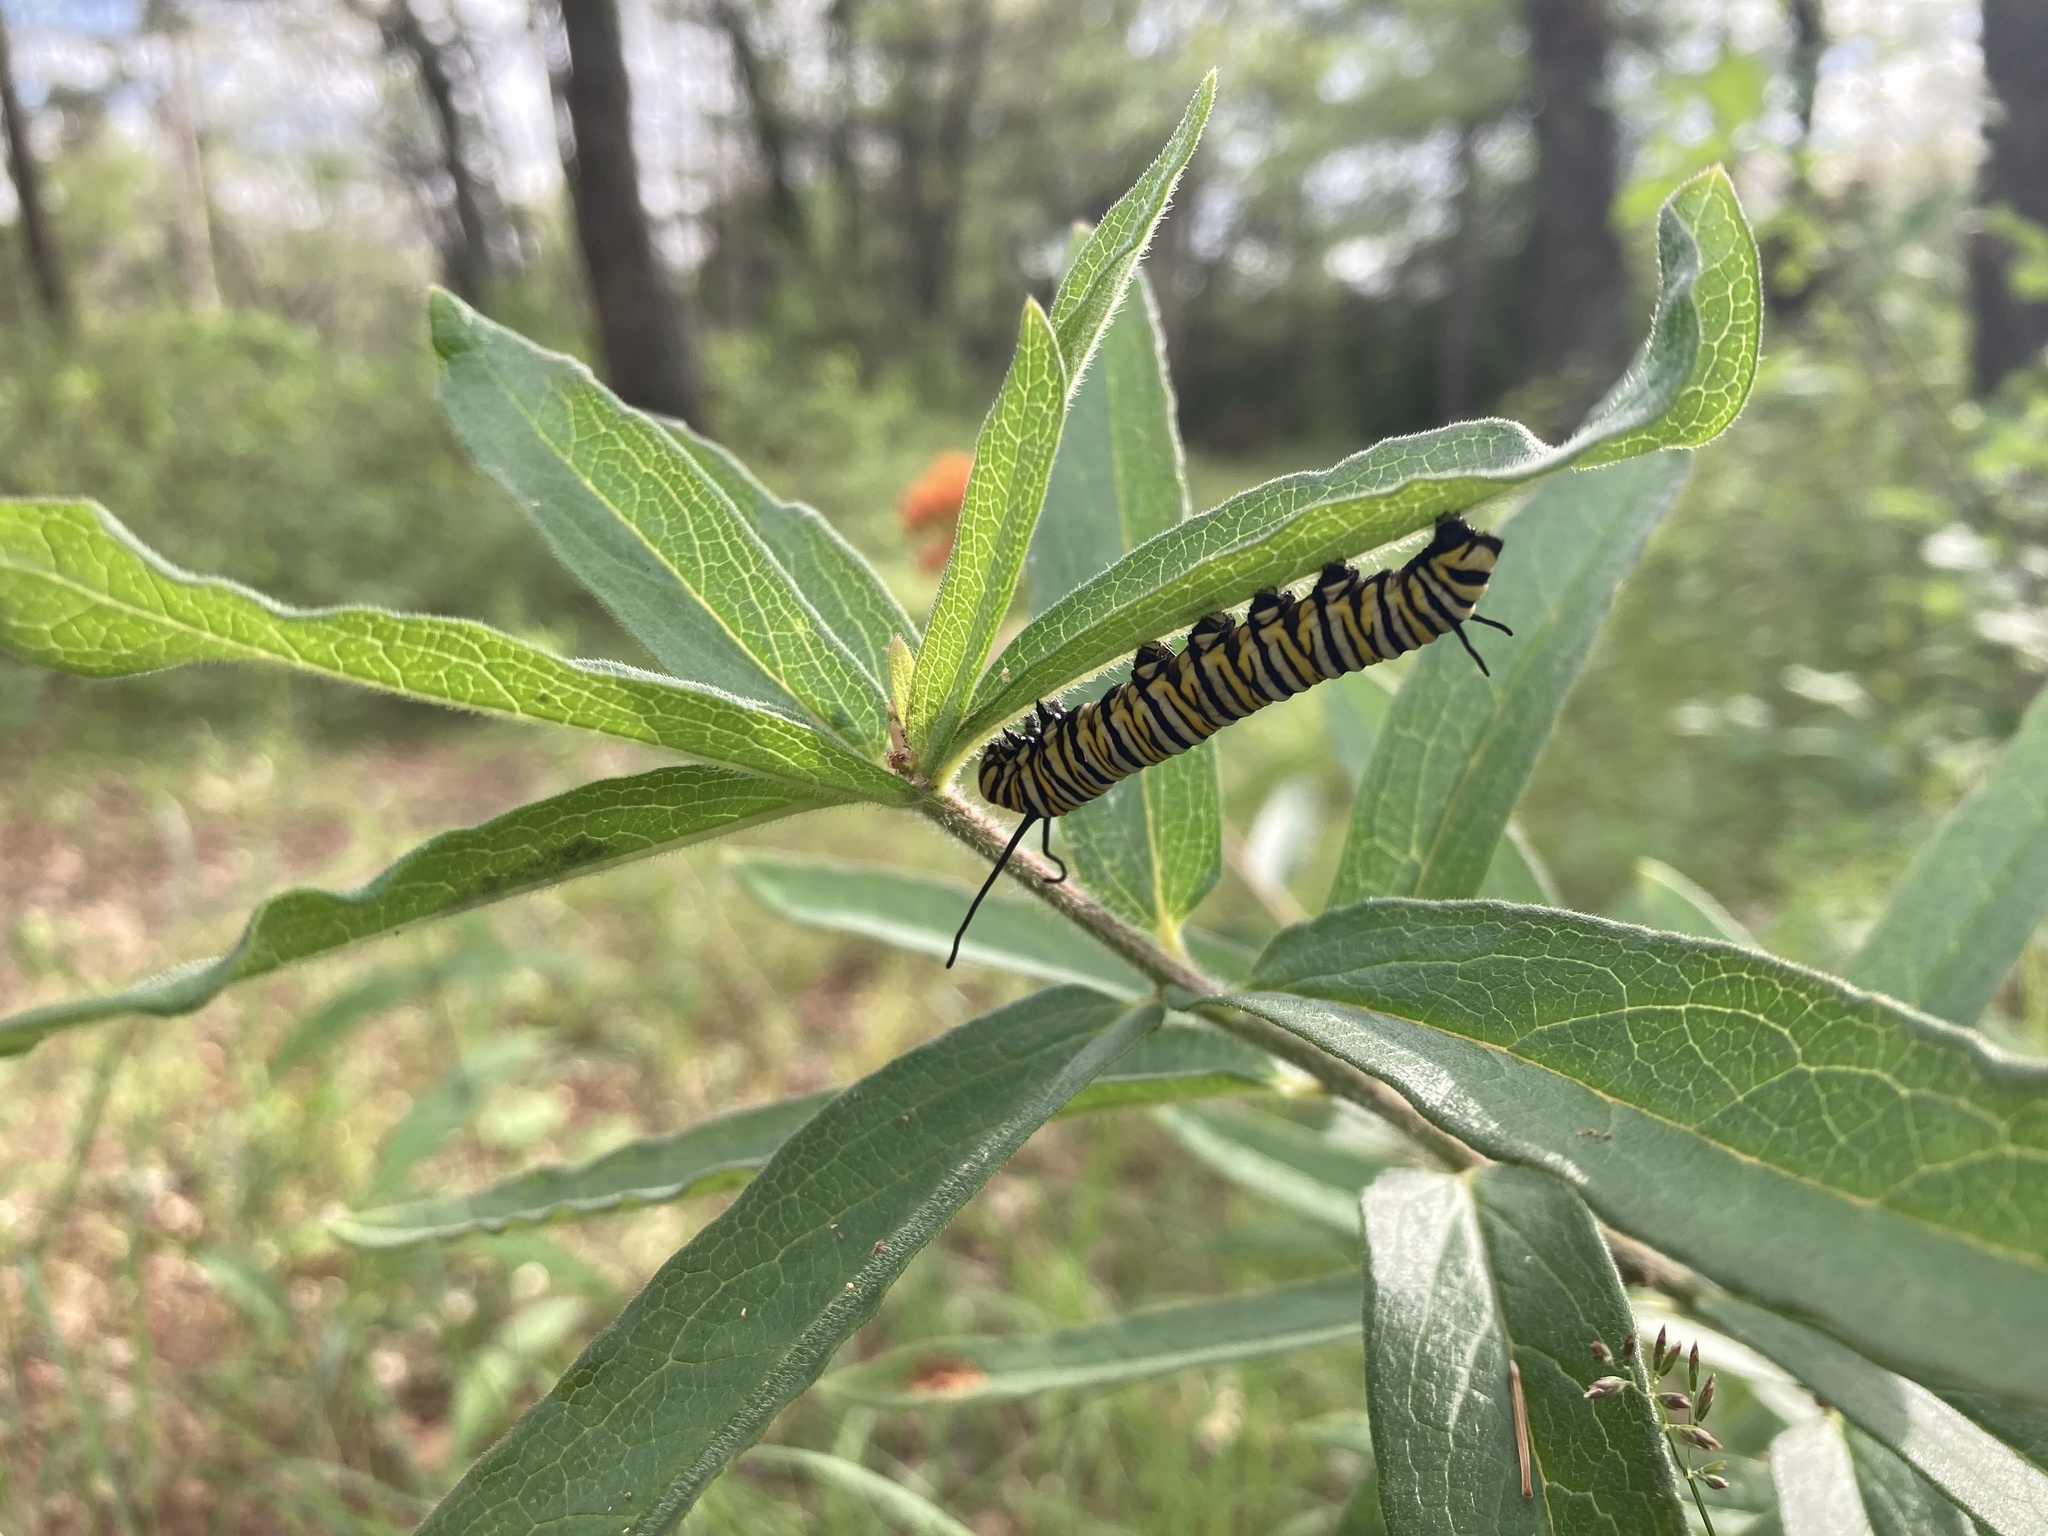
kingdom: Animalia
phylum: Arthropoda
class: Insecta
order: Lepidoptera
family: Nymphalidae
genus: Danaus
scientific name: Danaus plexippus
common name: Monarch
